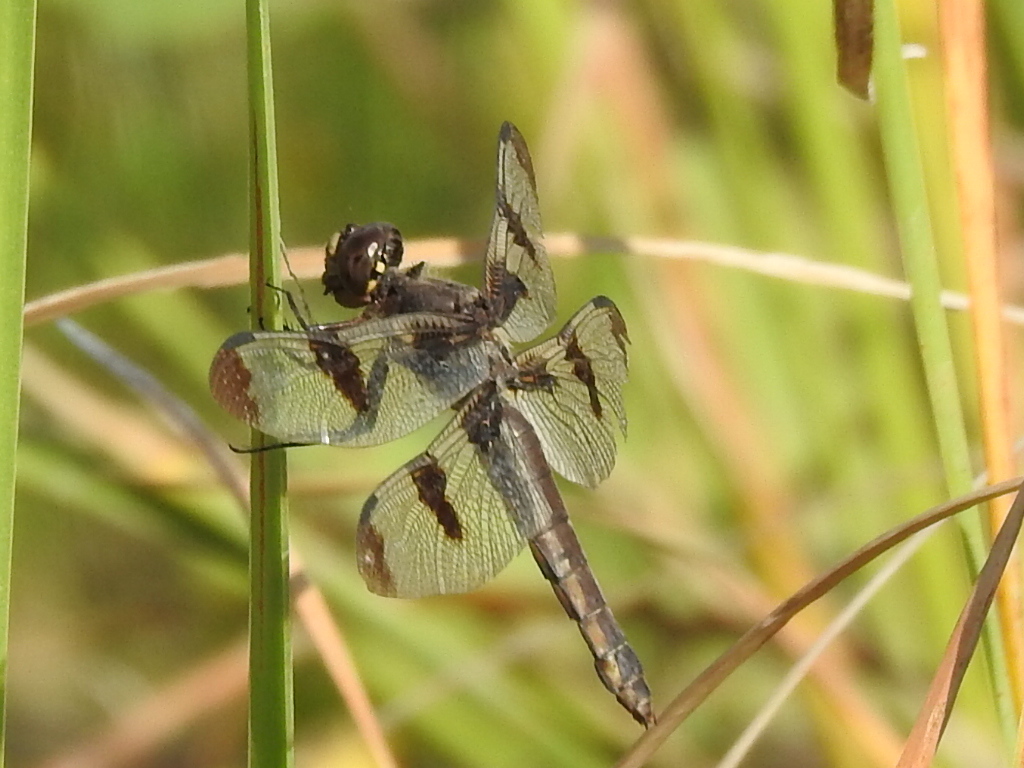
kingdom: Animalia
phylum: Arthropoda
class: Insecta
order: Odonata
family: Libellulidae
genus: Libellula
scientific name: Libellula pulchella
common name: Twelve-spotted skimmer
